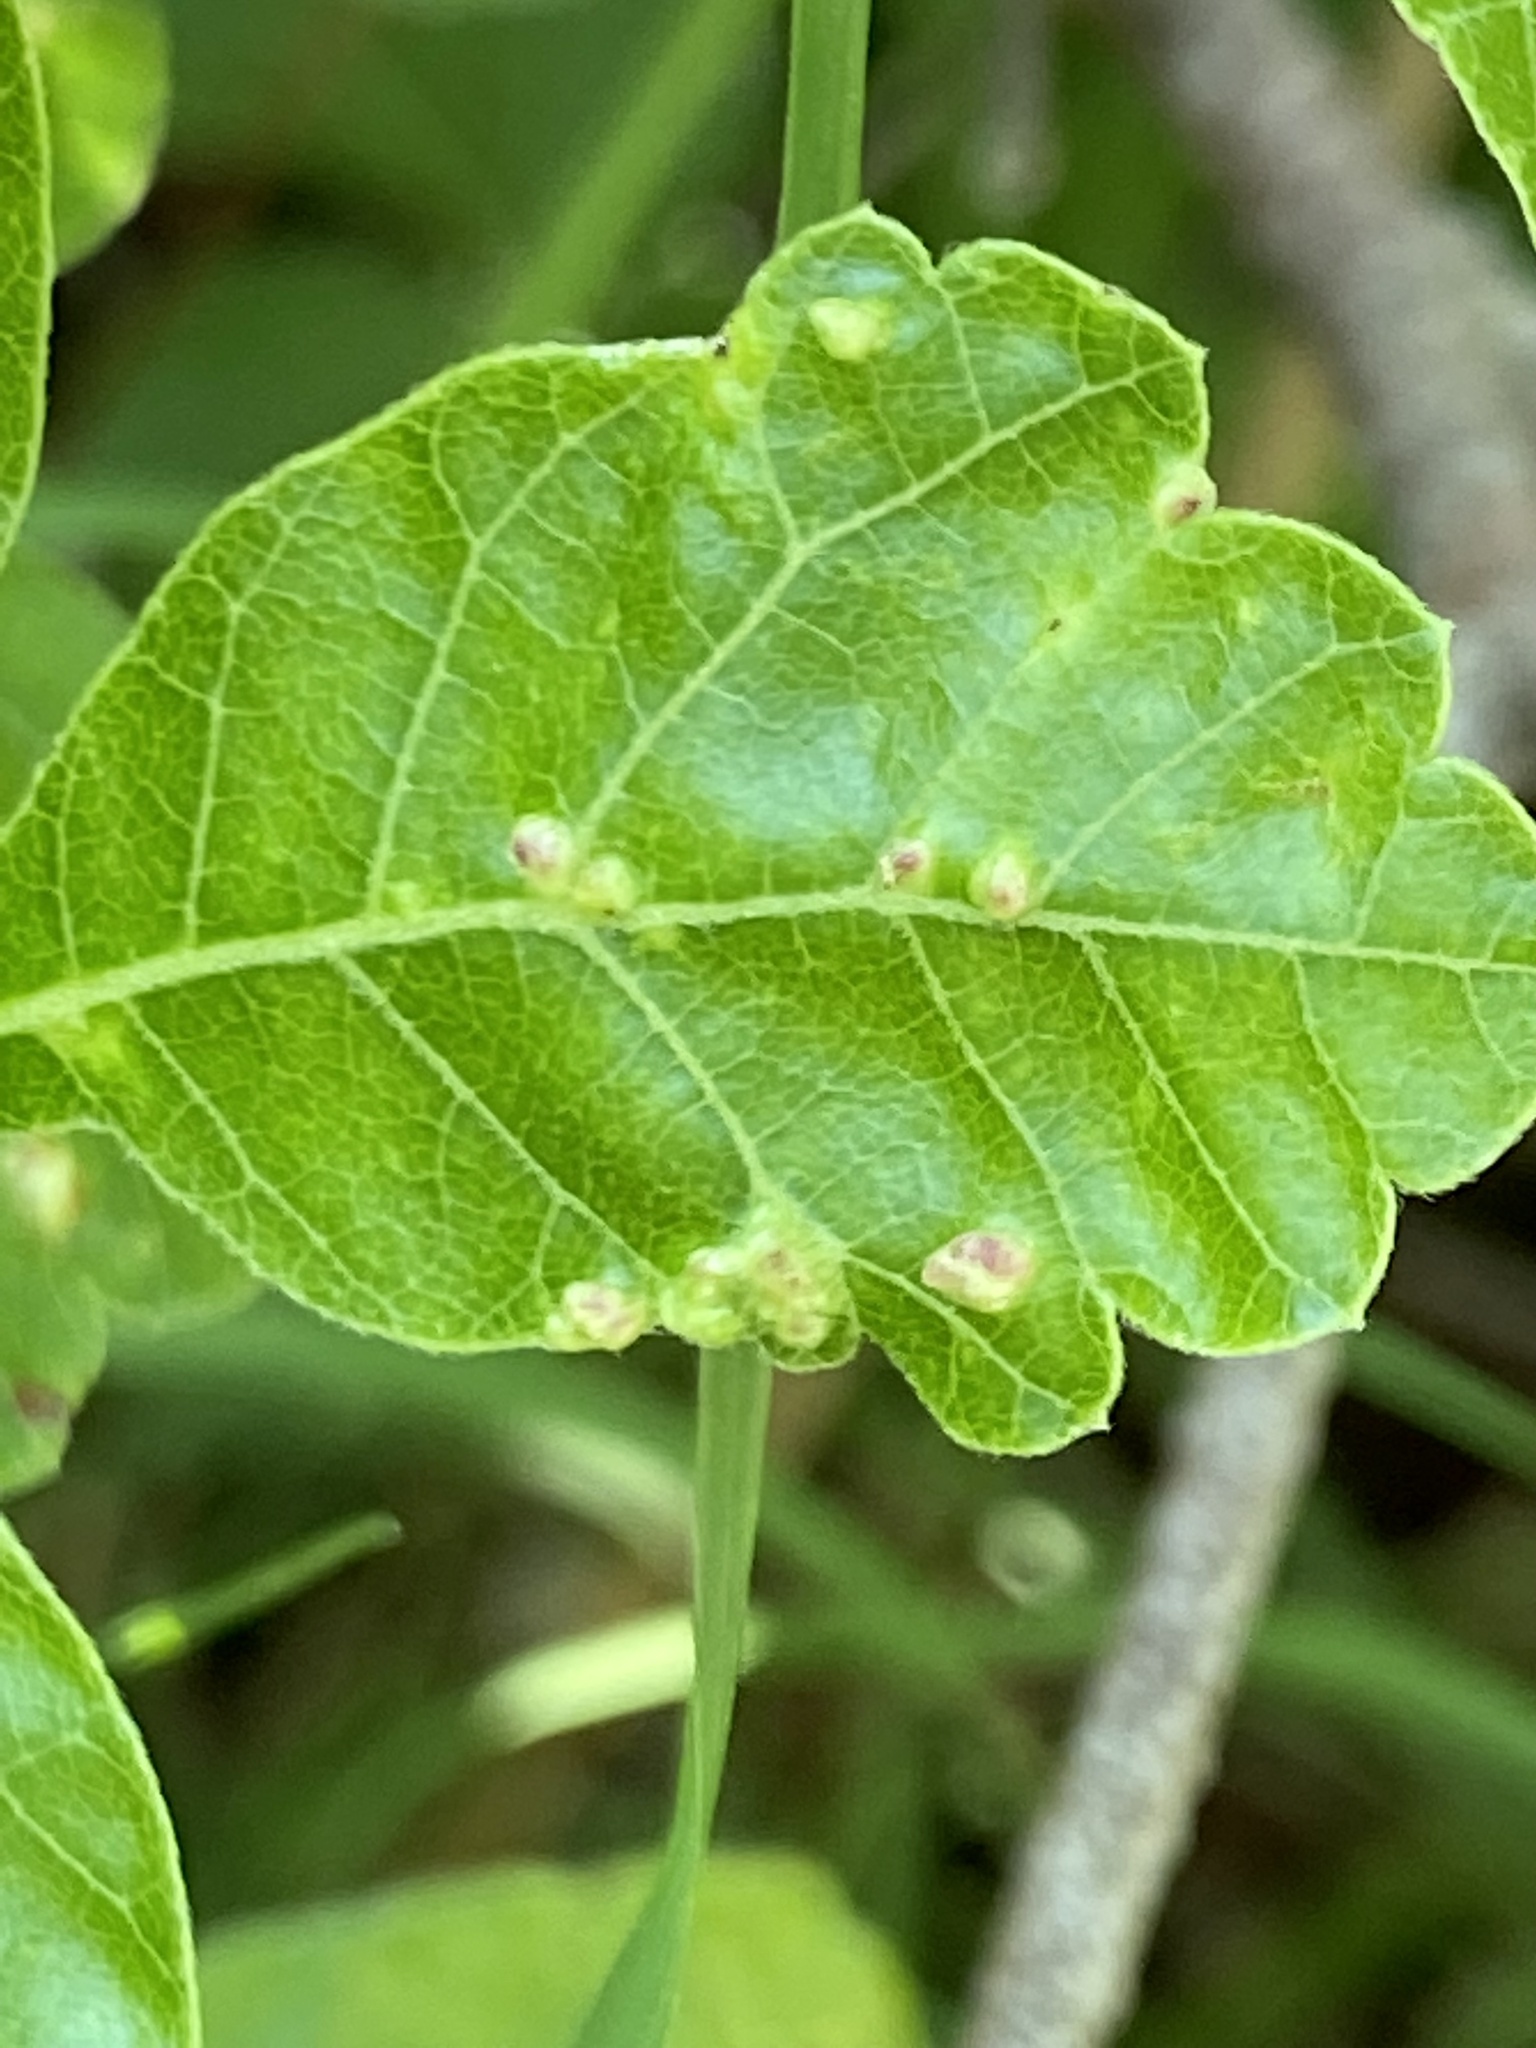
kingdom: Animalia
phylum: Arthropoda
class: Arachnida
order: Trombidiformes
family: Eriophyidae
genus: Aculops
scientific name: Aculops
